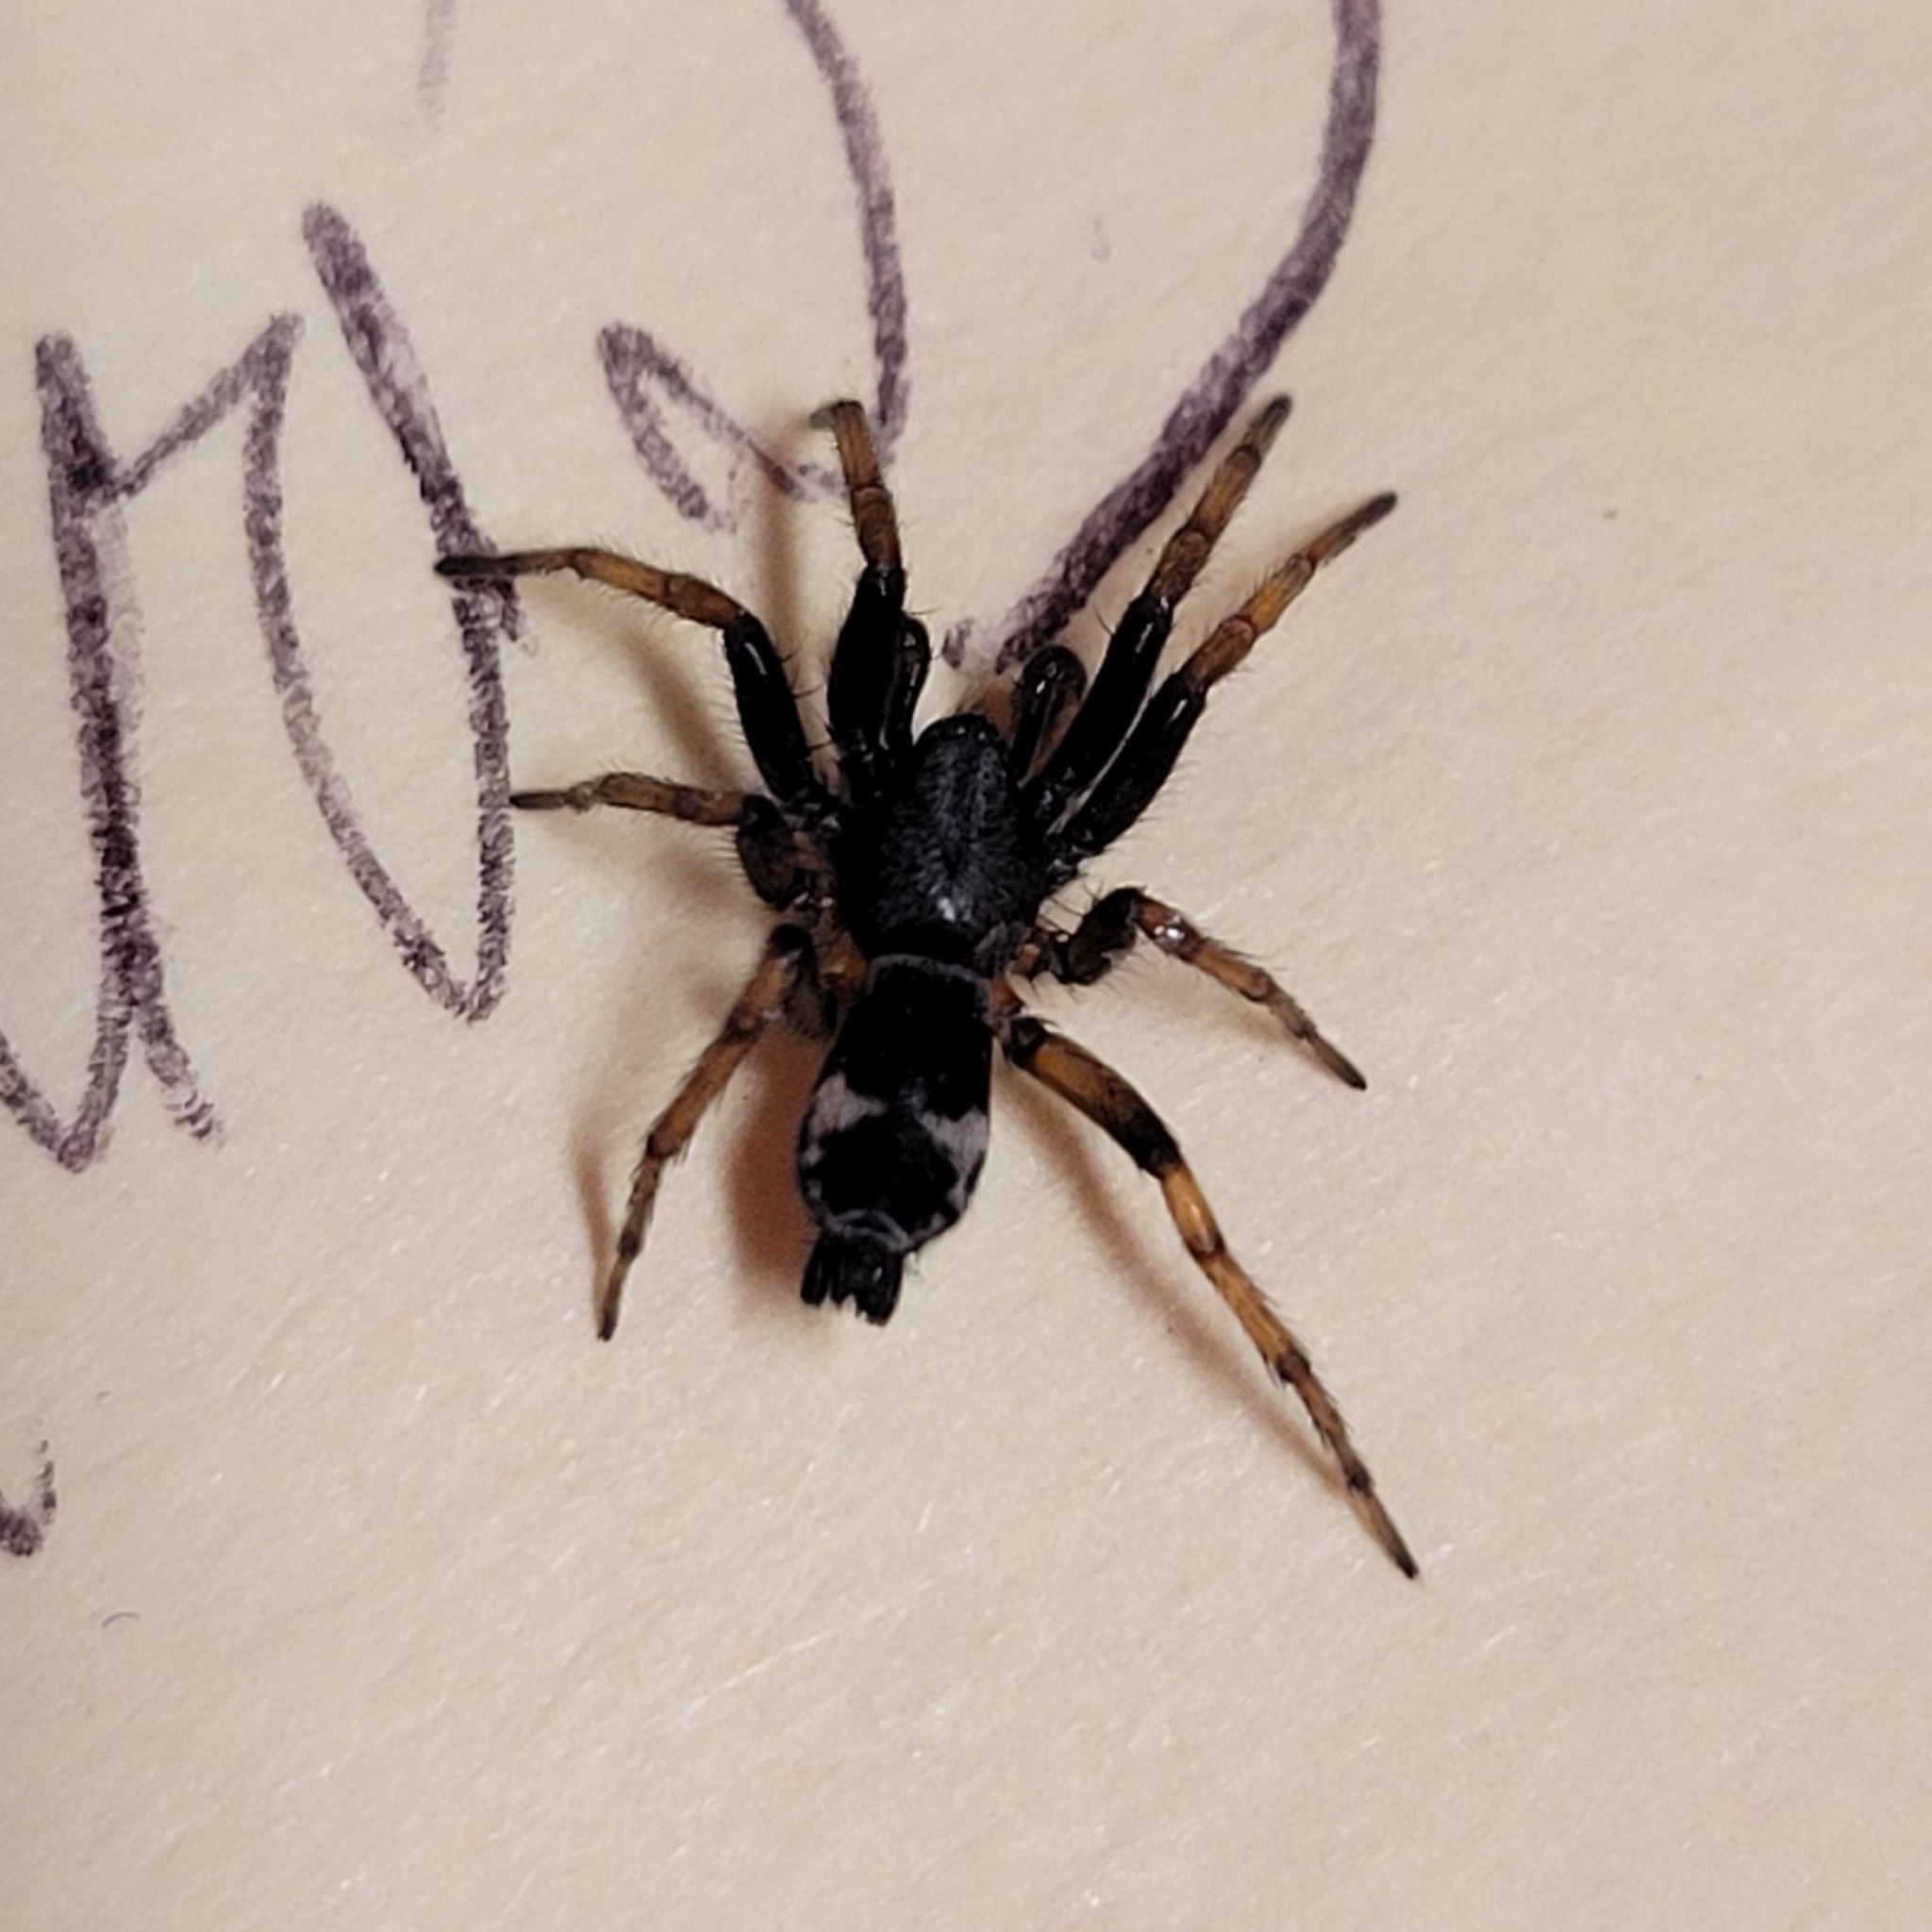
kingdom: Animalia
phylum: Arthropoda
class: Arachnida
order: Araneae
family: Gnaphosidae
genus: Sergiolus
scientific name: Sergiolus montanus
